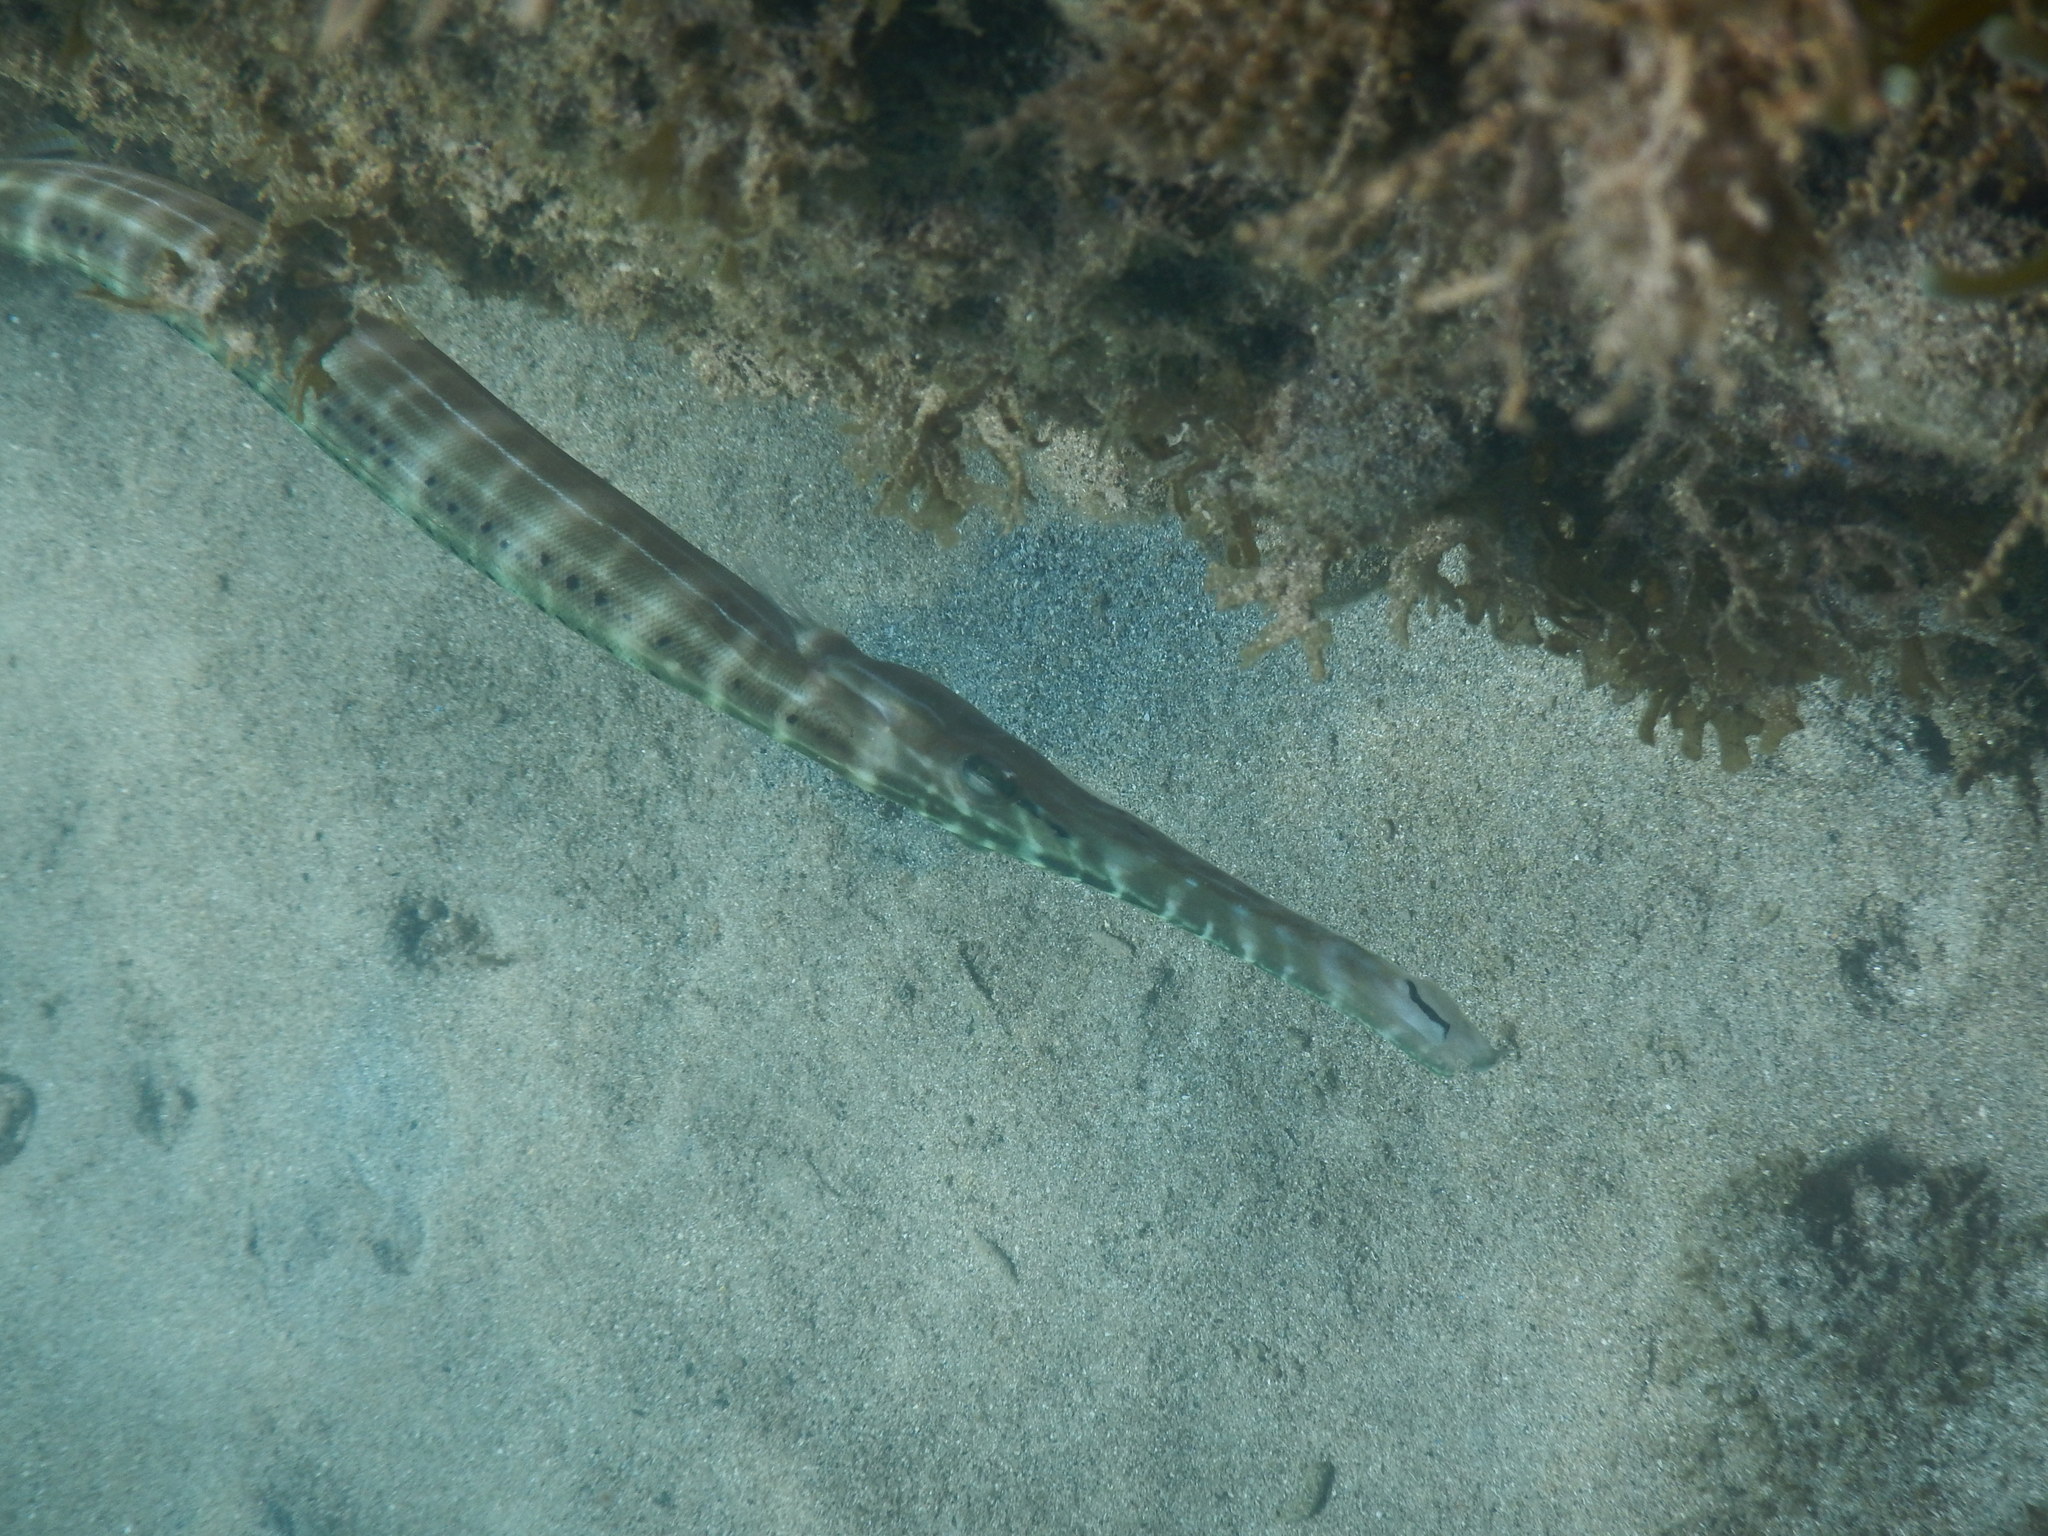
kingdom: Animalia
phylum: Chordata
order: Syngnathiformes
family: Aulostomidae
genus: Aulostomus
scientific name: Aulostomus maculatus
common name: West atlantic trumpetfish
